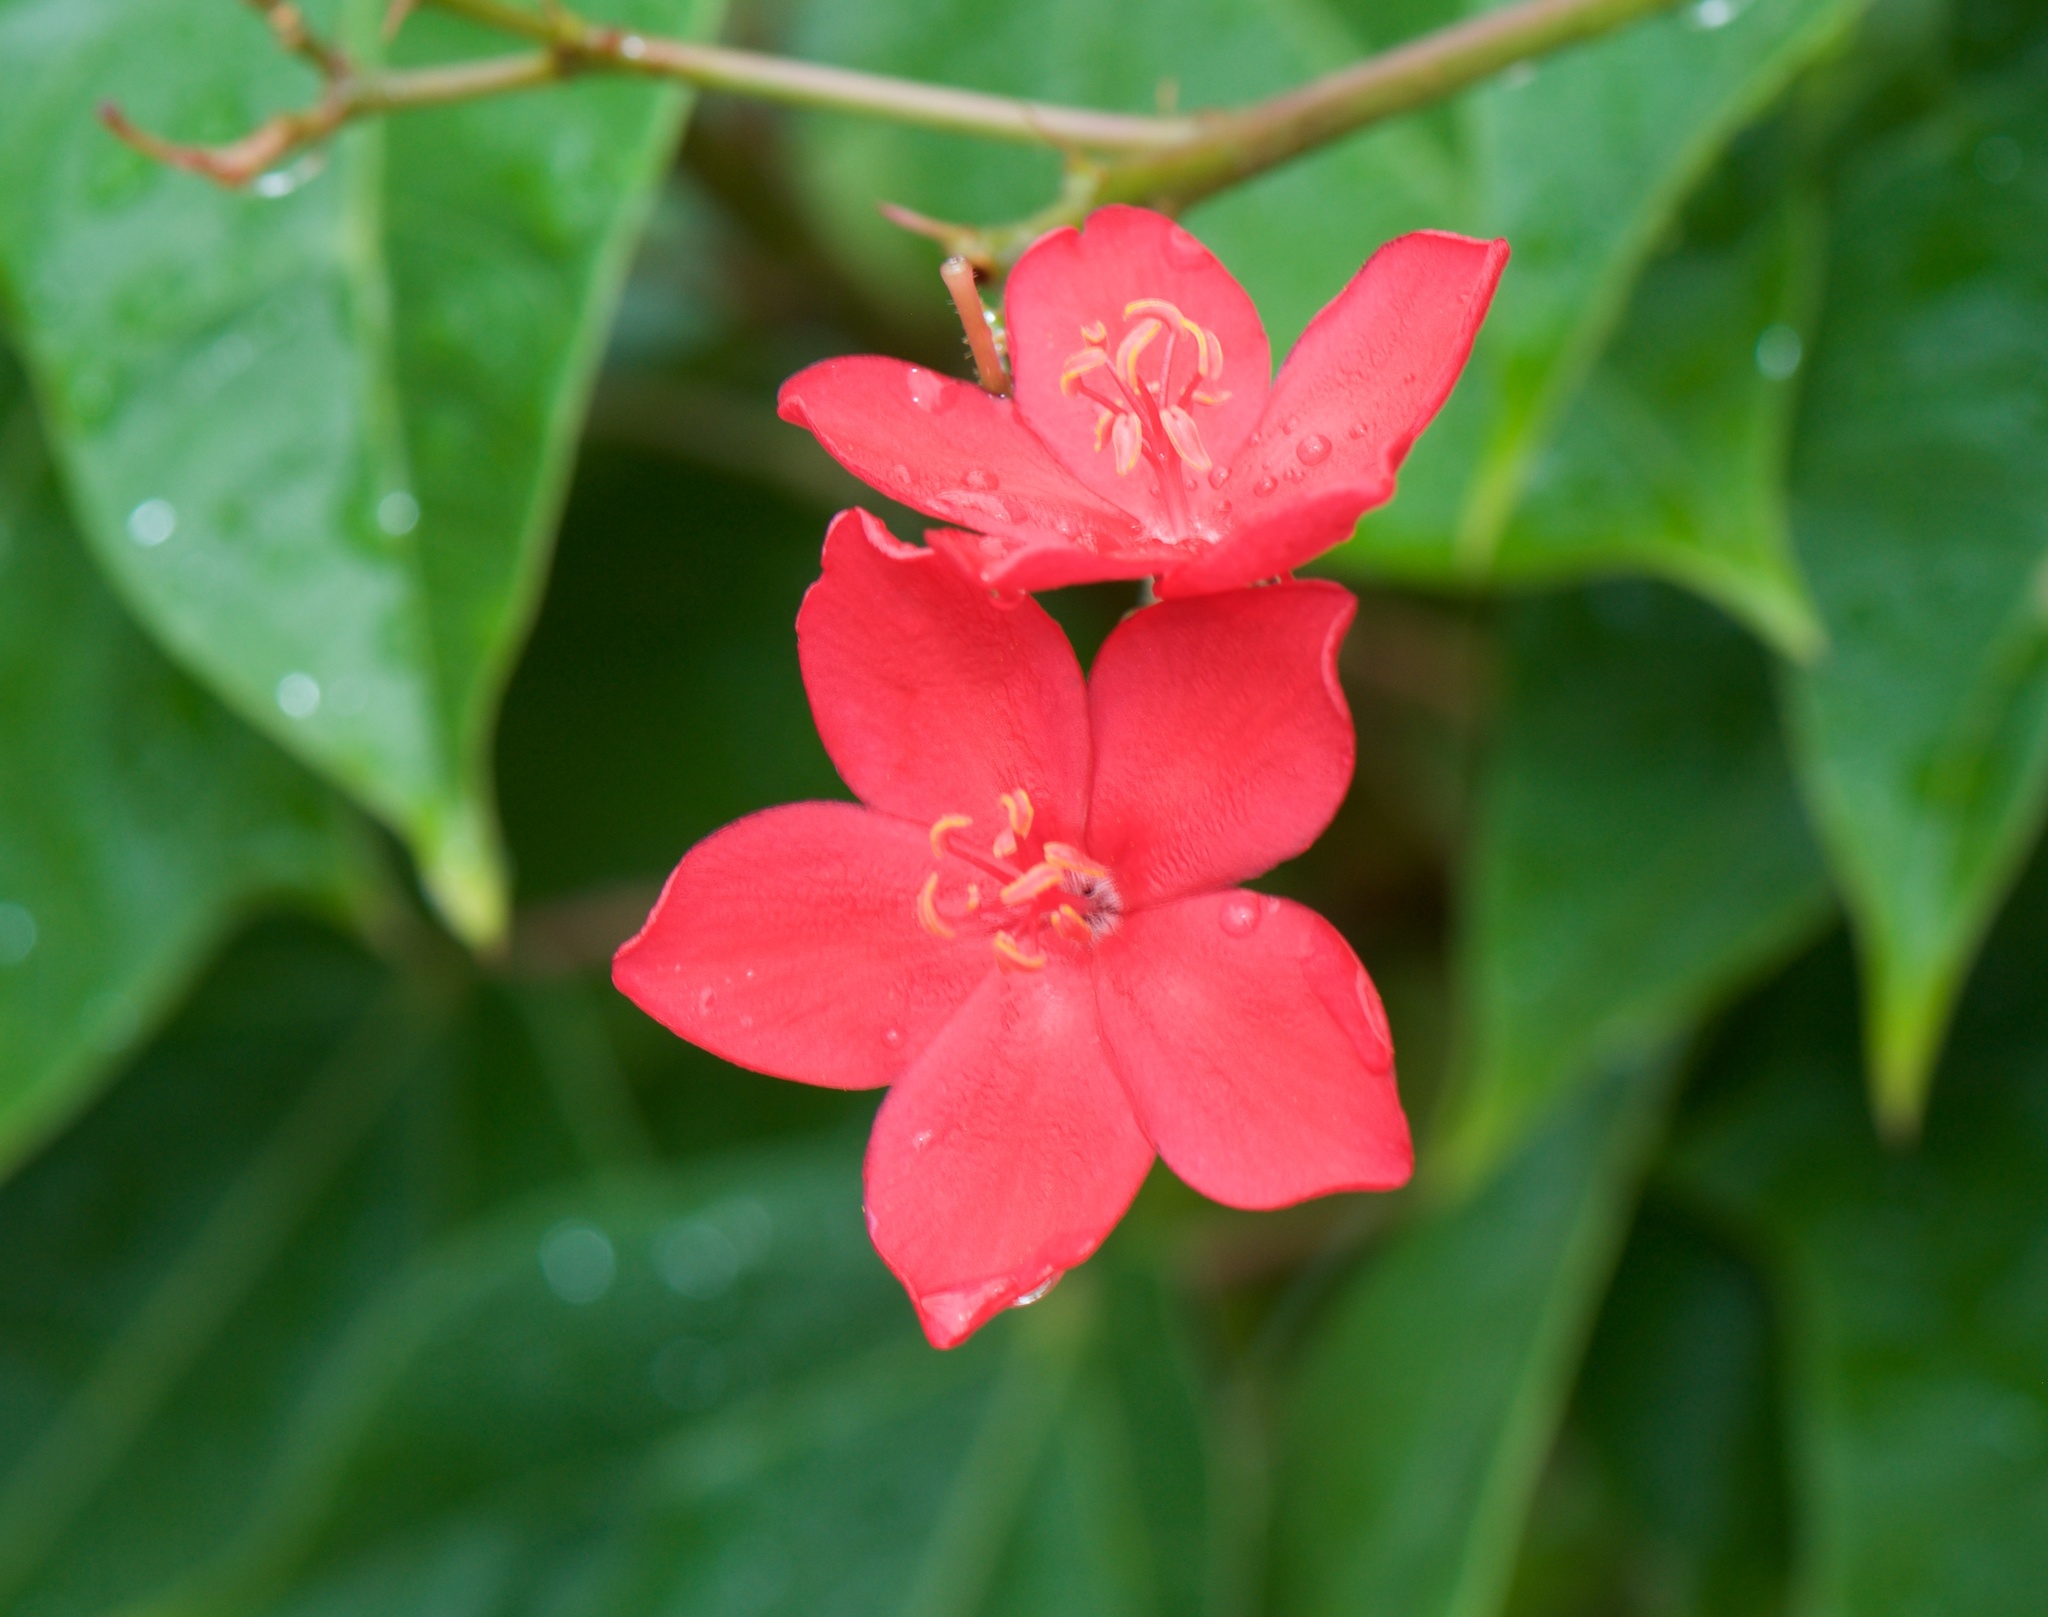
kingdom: Plantae
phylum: Tracheophyta
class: Magnoliopsida
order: Malpighiales
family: Euphorbiaceae
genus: Jatropha
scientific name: Jatropha integerrima
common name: Peregrina
